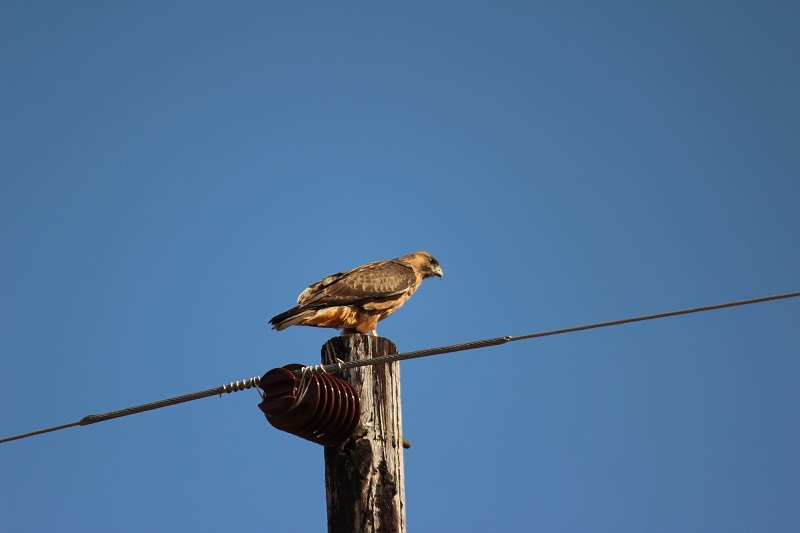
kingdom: Animalia
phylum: Chordata
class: Aves
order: Accipitriformes
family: Accipitridae
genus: Buteo
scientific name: Buteo rufofuscus
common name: Jackal buzzard
